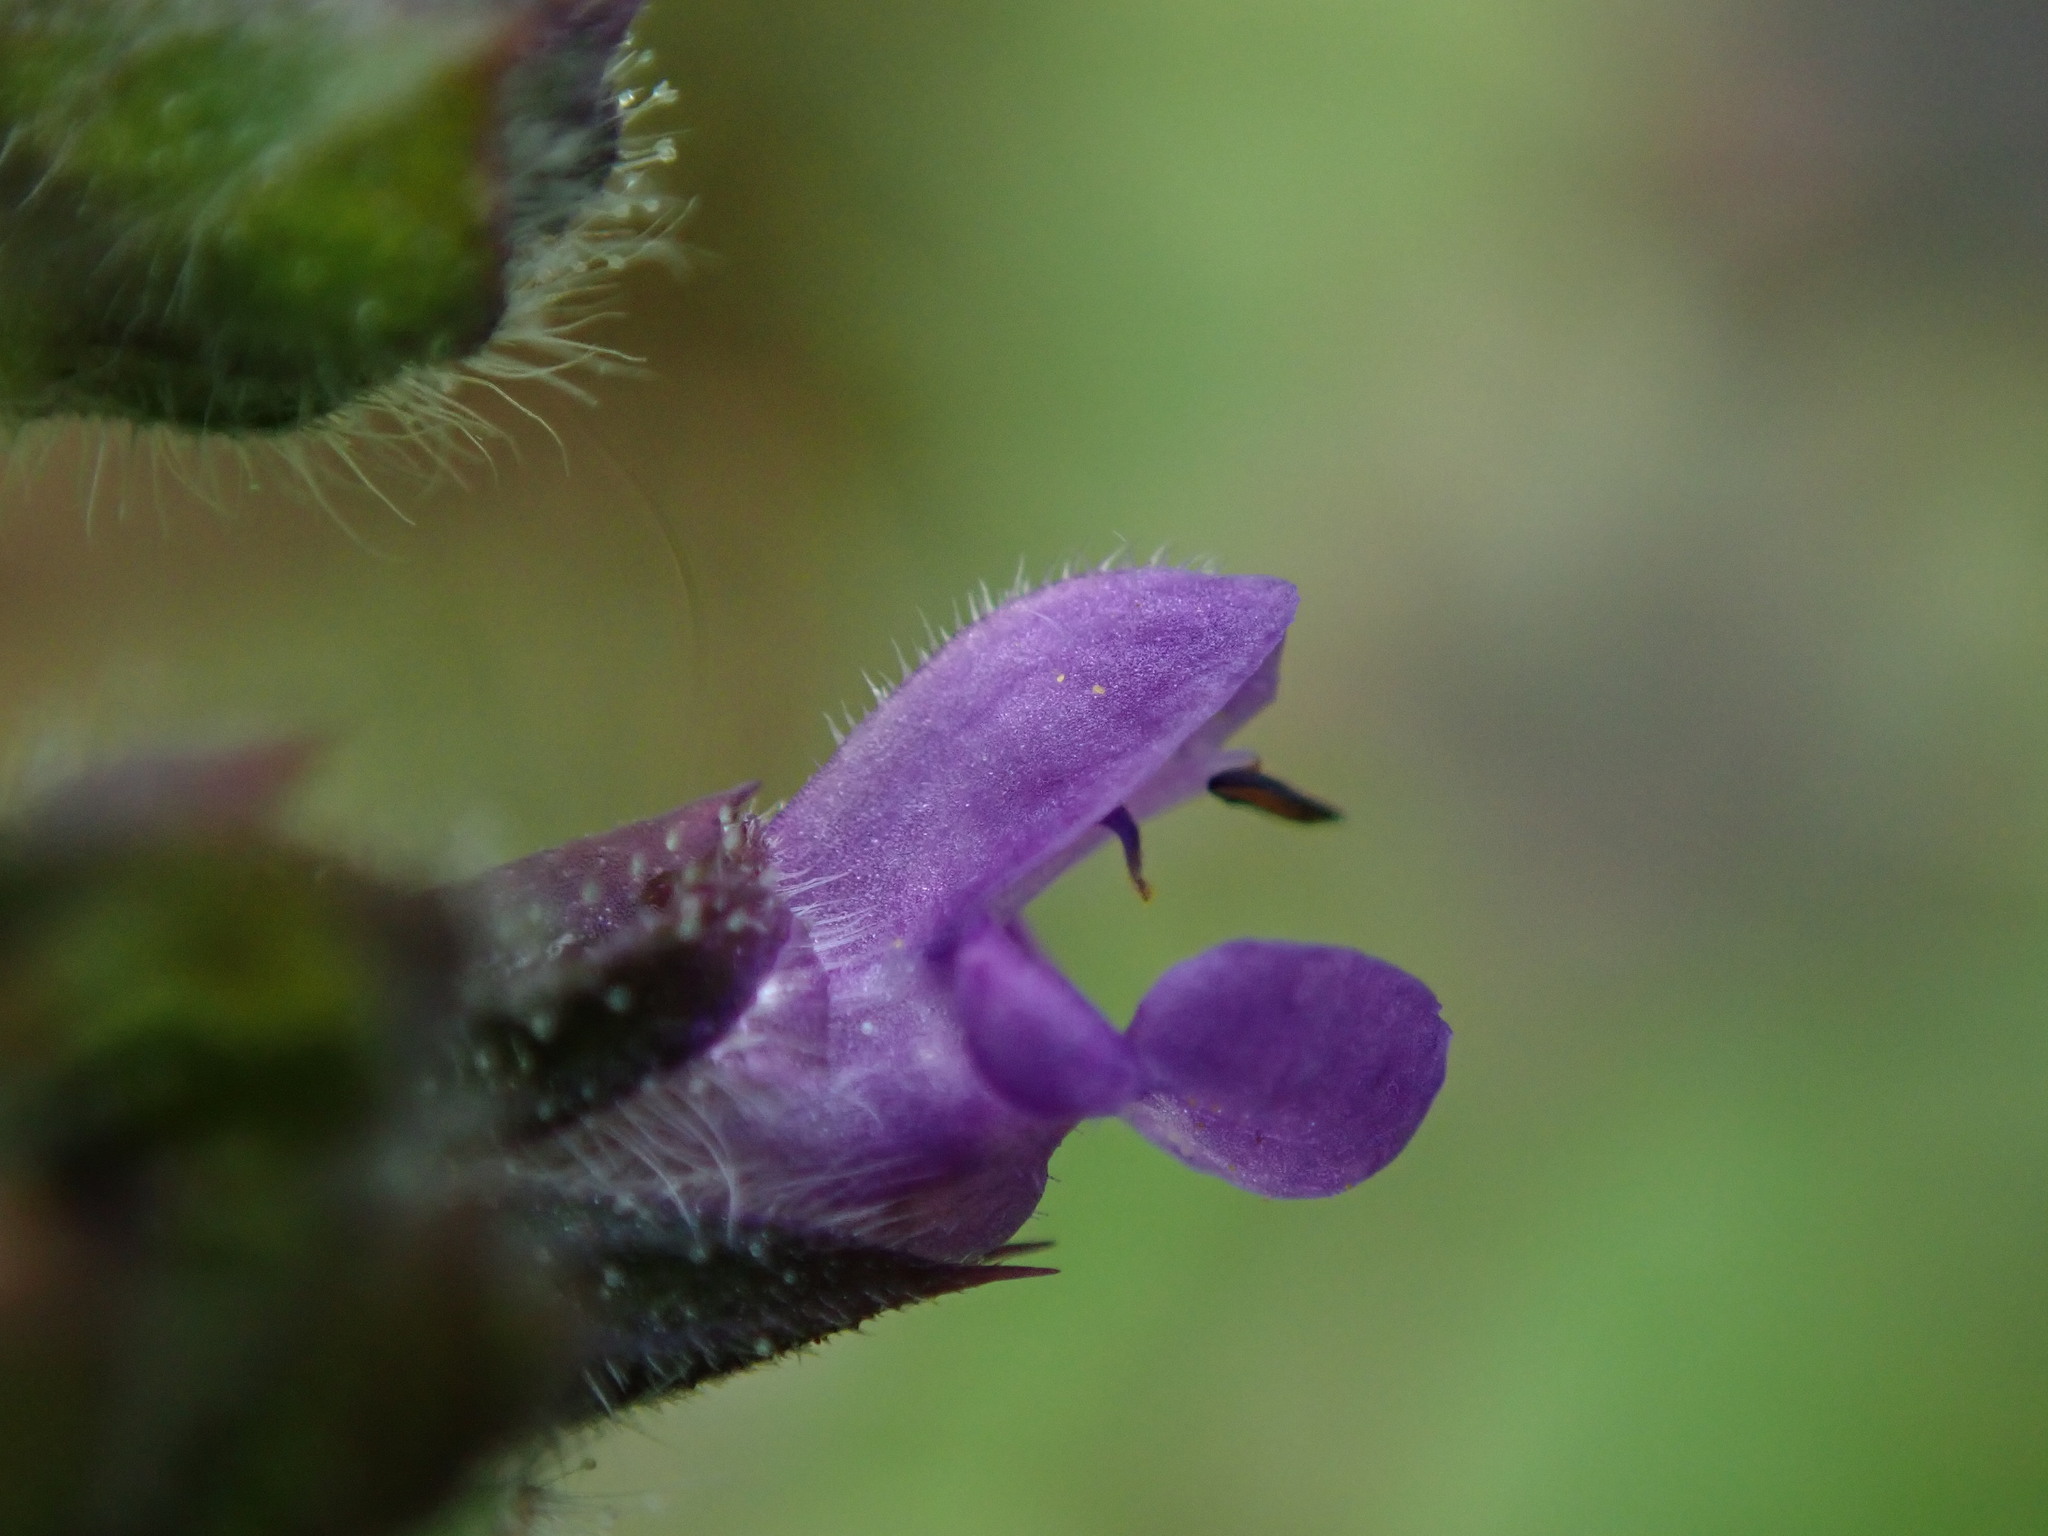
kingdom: Plantae
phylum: Tracheophyta
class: Magnoliopsida
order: Lamiales
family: Lamiaceae
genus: Salvia
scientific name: Salvia verbenaca
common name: Wild clary
